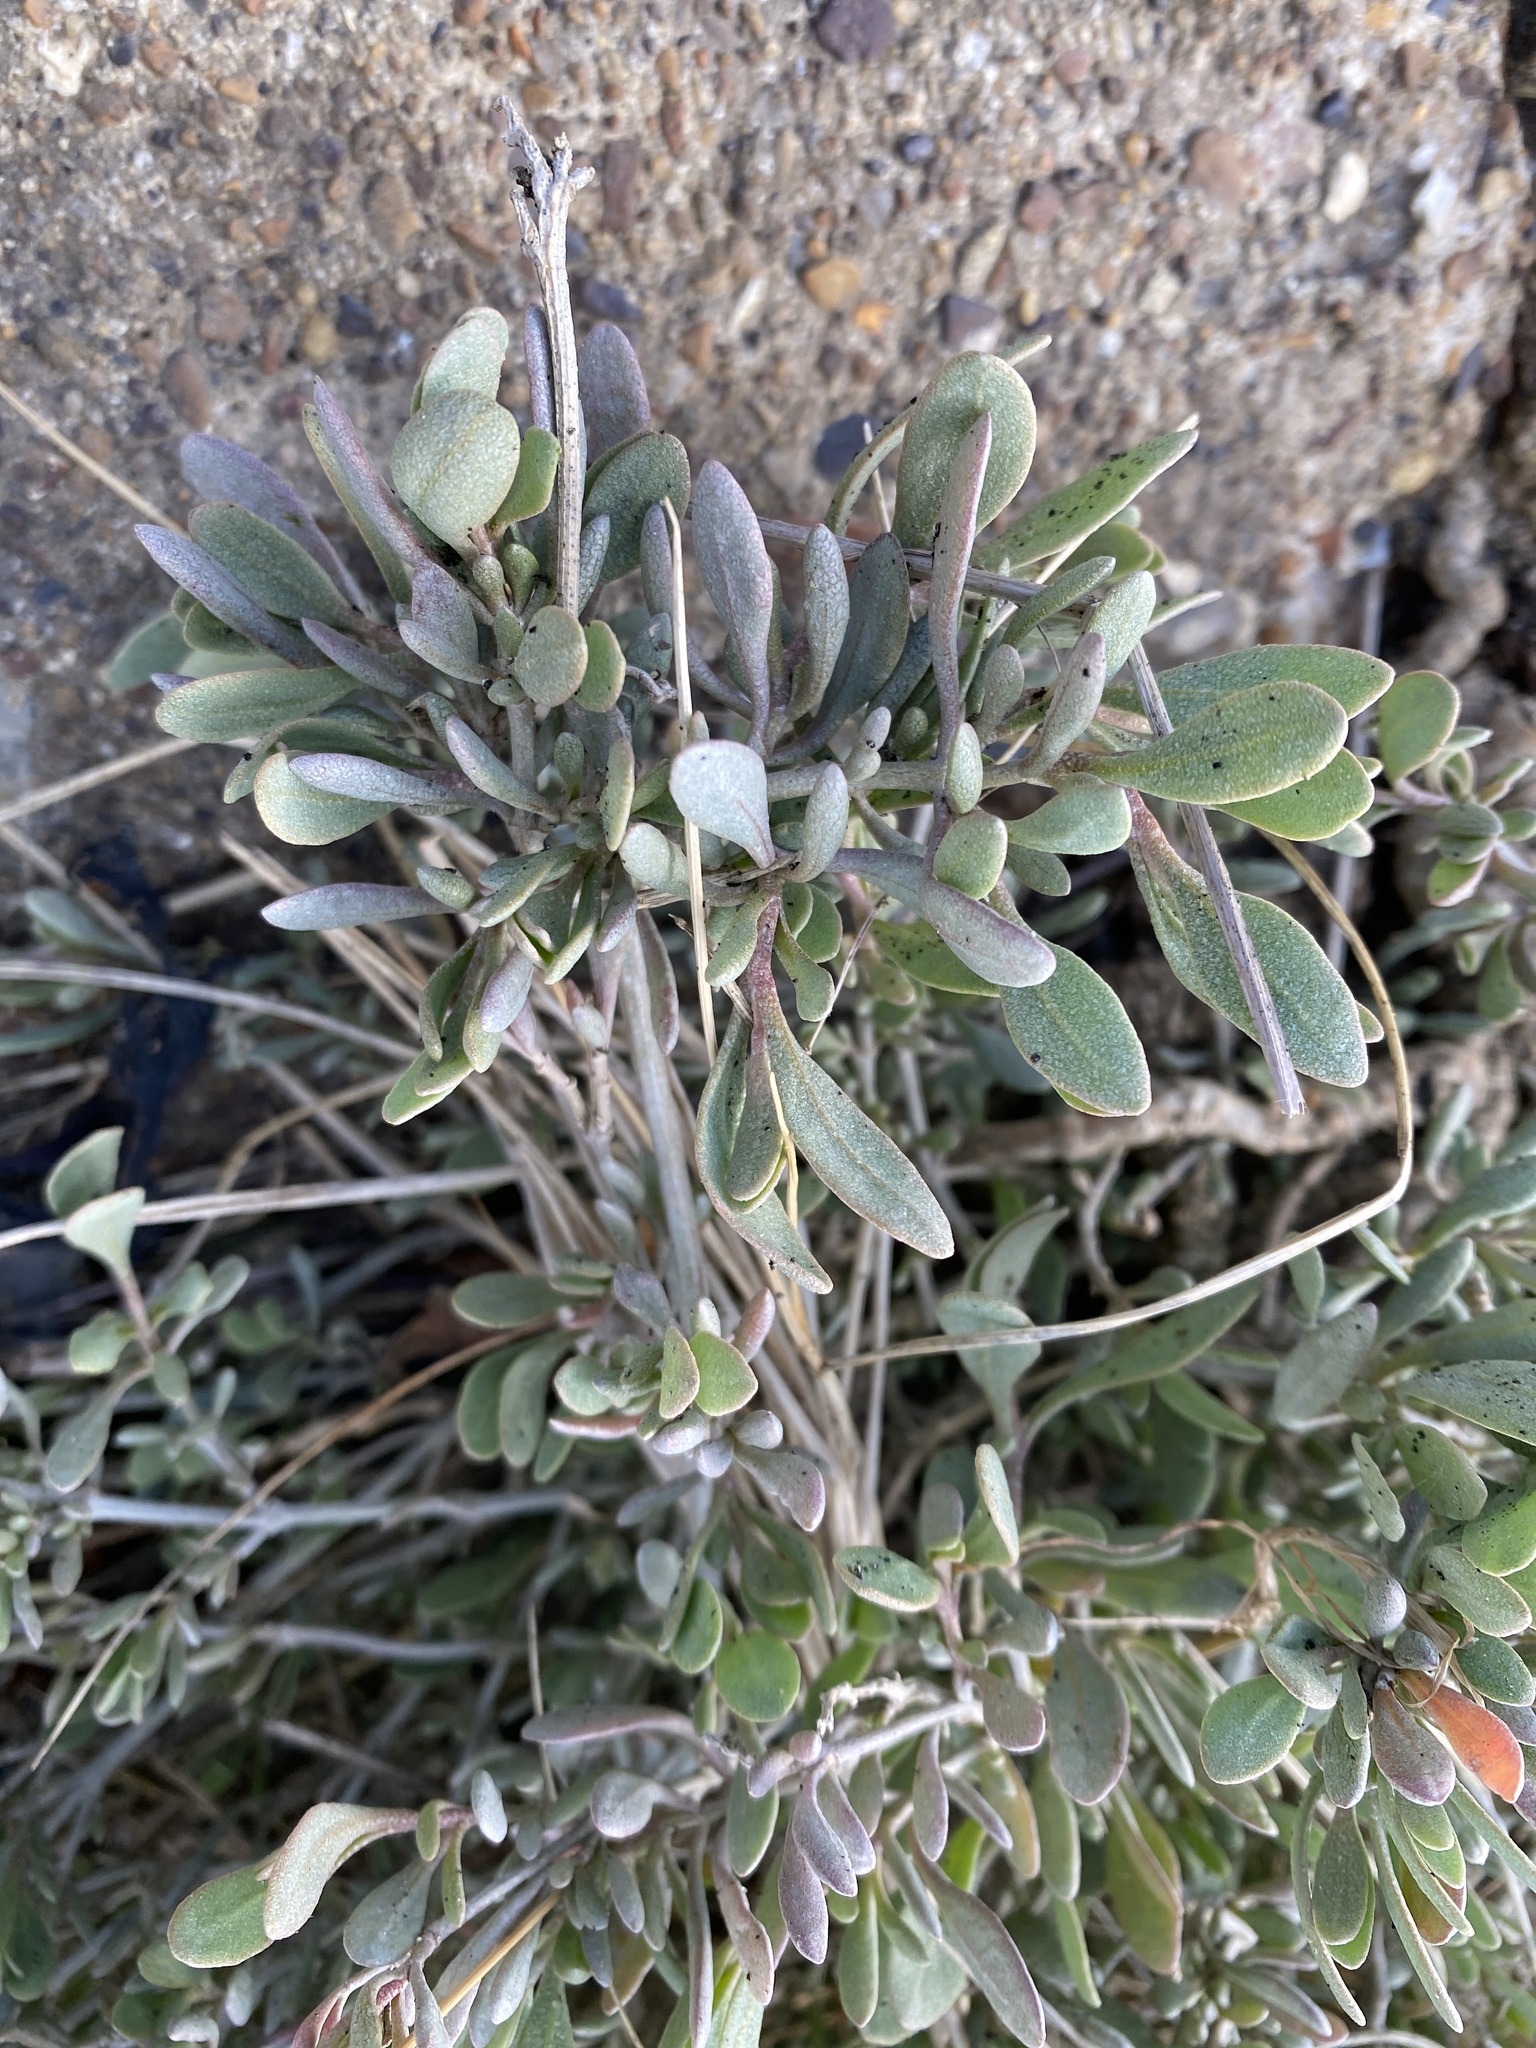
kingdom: Plantae
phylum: Tracheophyta
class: Magnoliopsida
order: Caryophyllales
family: Amaranthaceae
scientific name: Amaranthaceae
